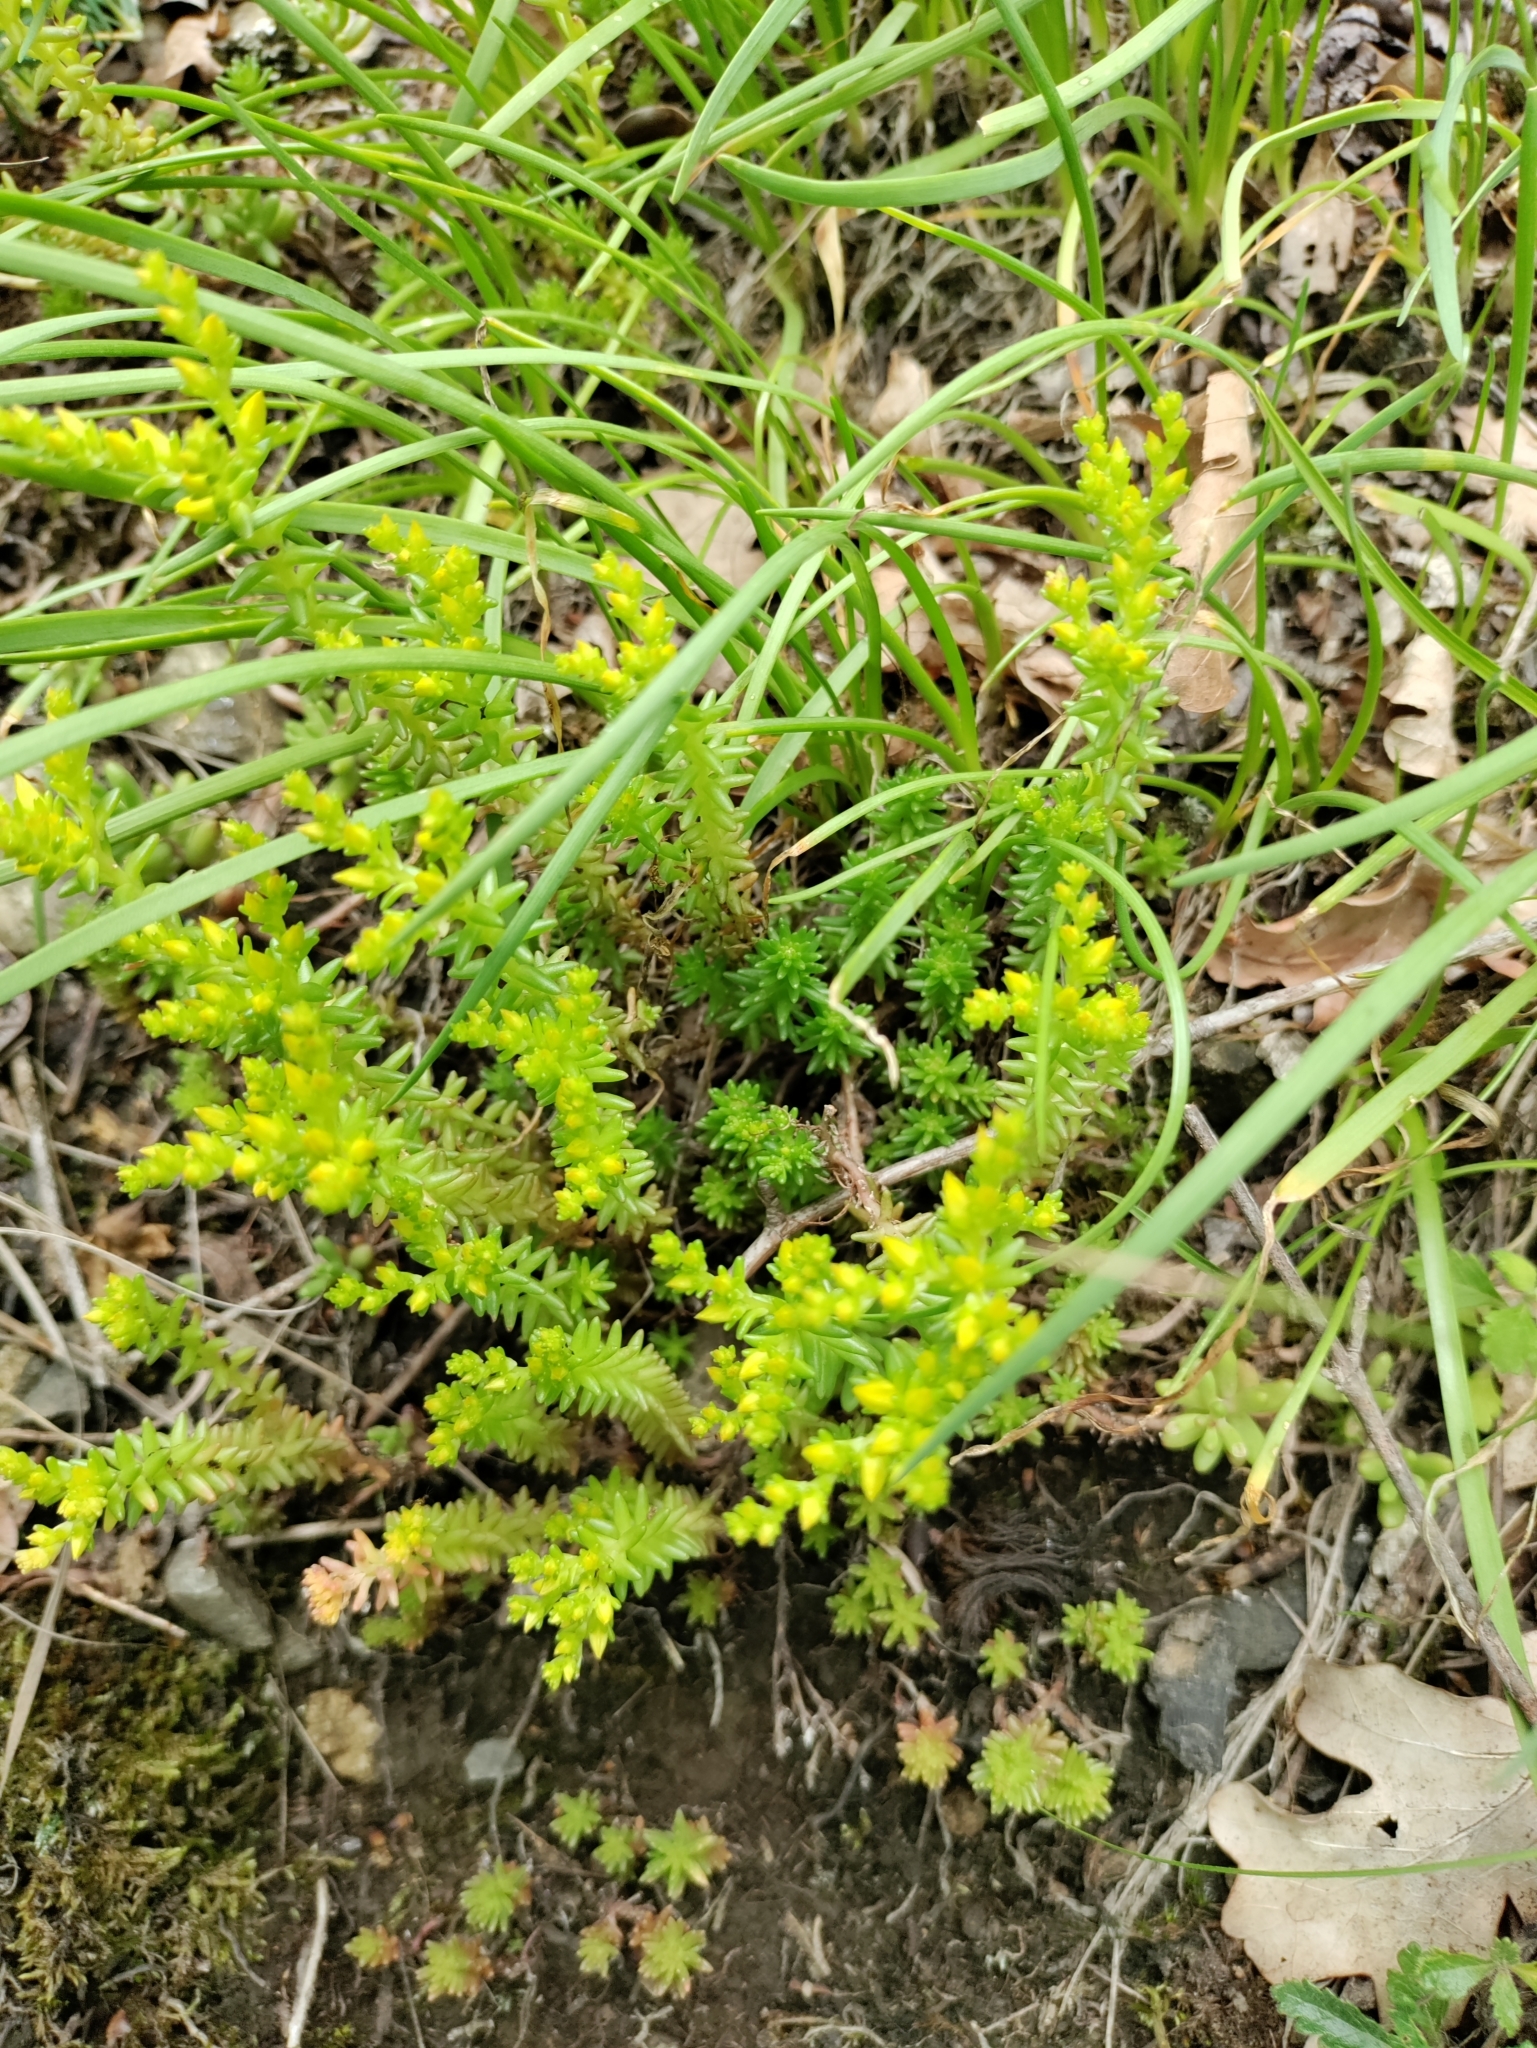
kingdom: Plantae
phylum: Tracheophyta
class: Magnoliopsida
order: Saxifragales
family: Crassulaceae
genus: Sedum
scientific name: Sedum sexangulare
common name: Tasteless stonecrop
